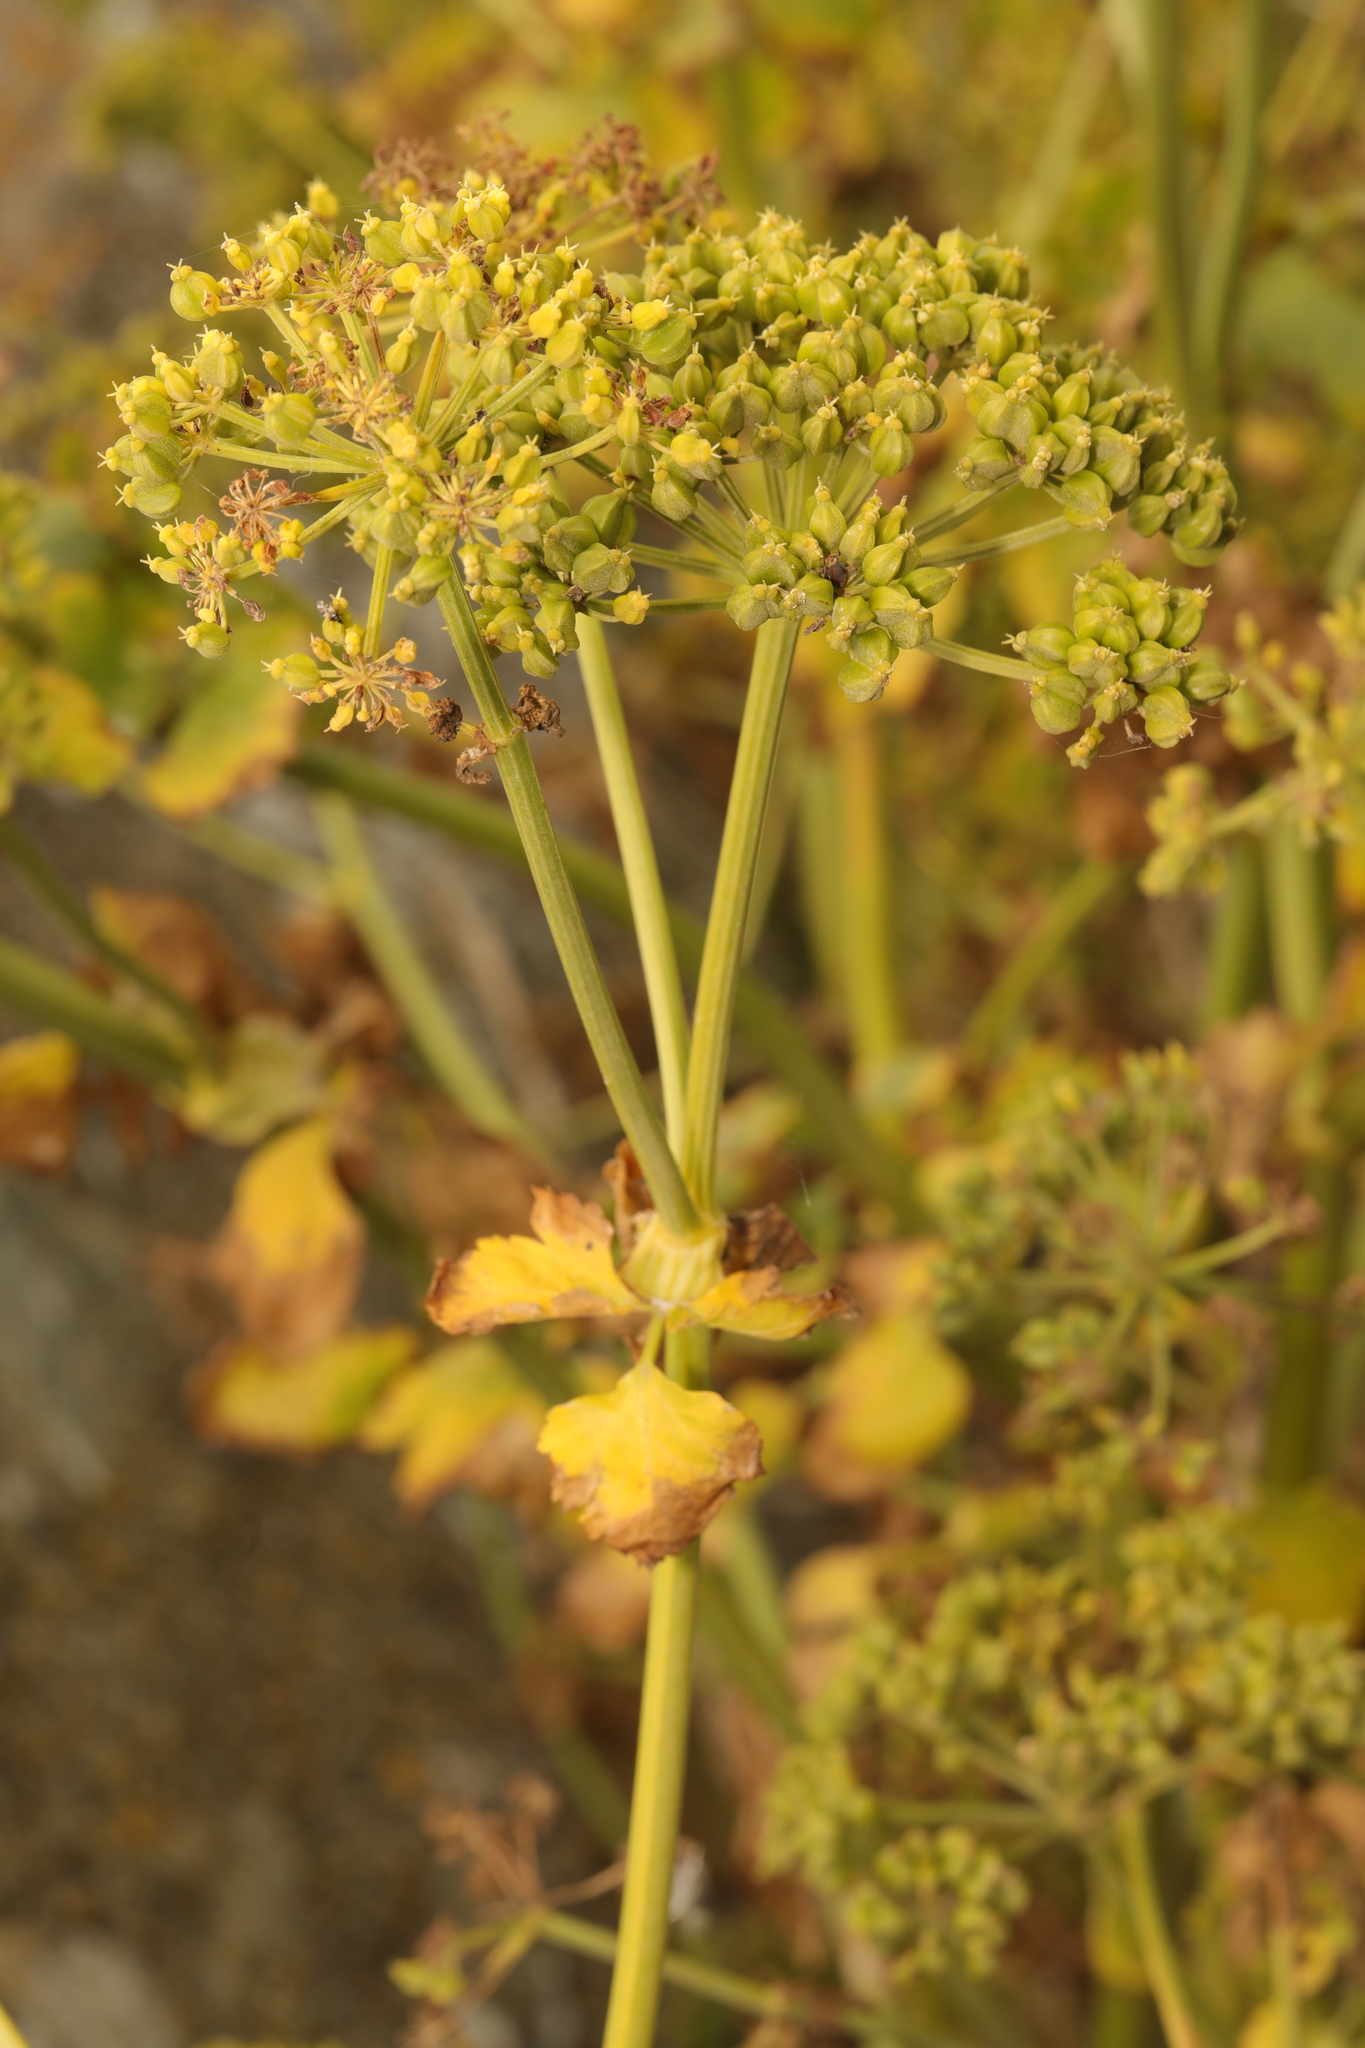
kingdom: Plantae
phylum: Tracheophyta
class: Magnoliopsida
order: Apiales
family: Apiaceae
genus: Smyrnium
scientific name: Smyrnium olusatrum
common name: Alexanders
